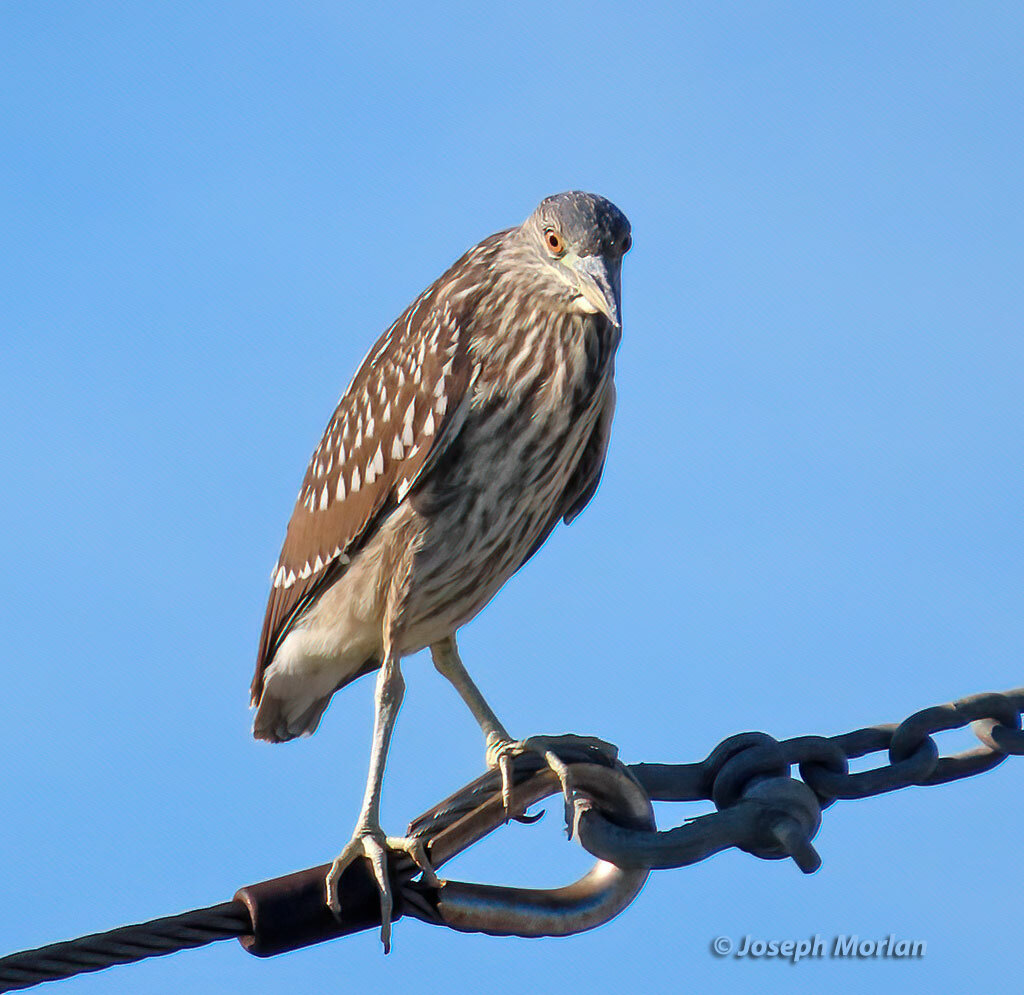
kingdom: Animalia
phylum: Chordata
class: Aves
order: Pelecaniformes
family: Ardeidae
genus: Nycticorax
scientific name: Nycticorax nycticorax
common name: Black-crowned night heron
